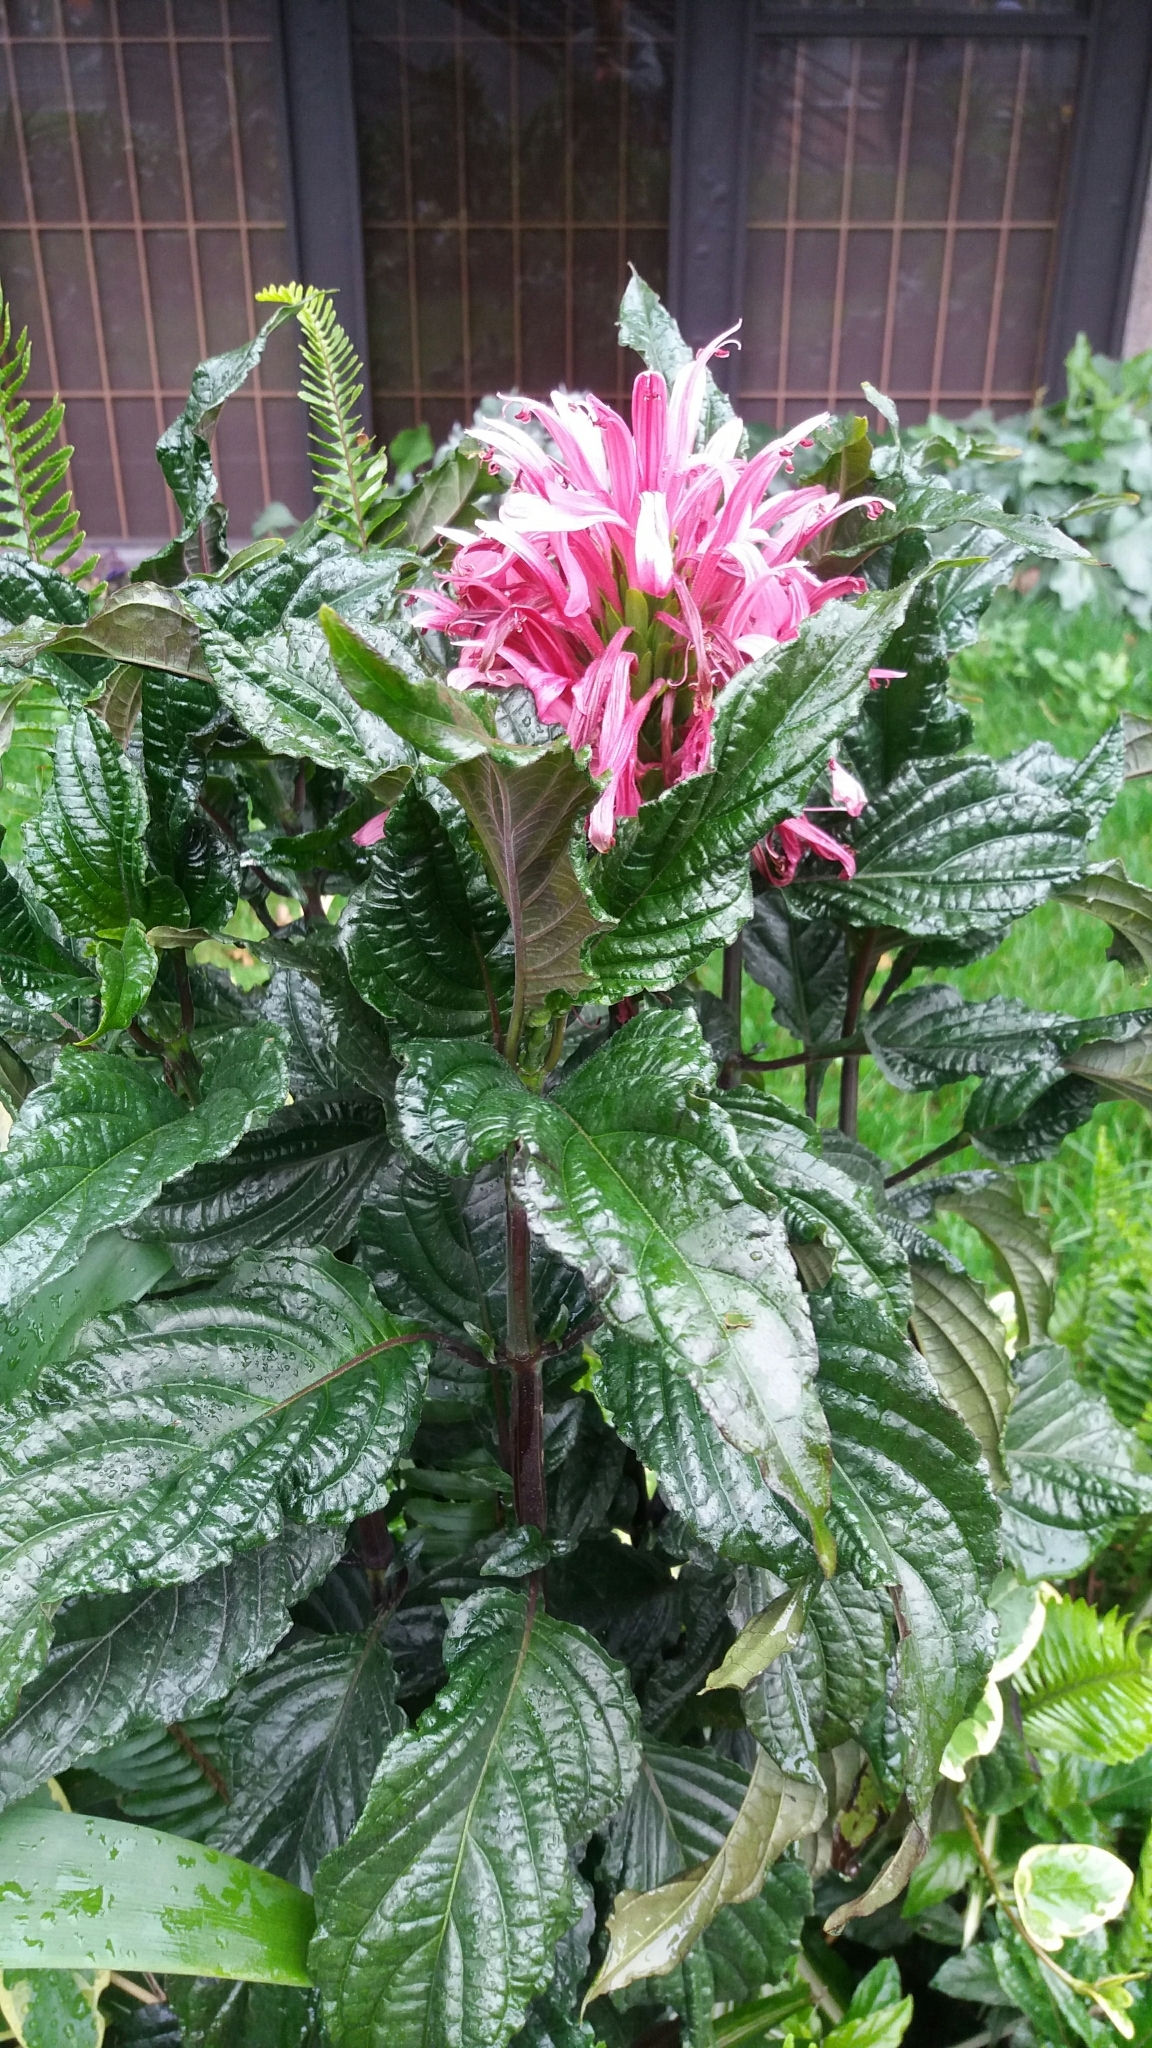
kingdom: Plantae
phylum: Tracheophyta
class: Magnoliopsida
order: Lamiales
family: Acanthaceae
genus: Justicia
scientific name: Justicia carnea
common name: Brazilian-plume
